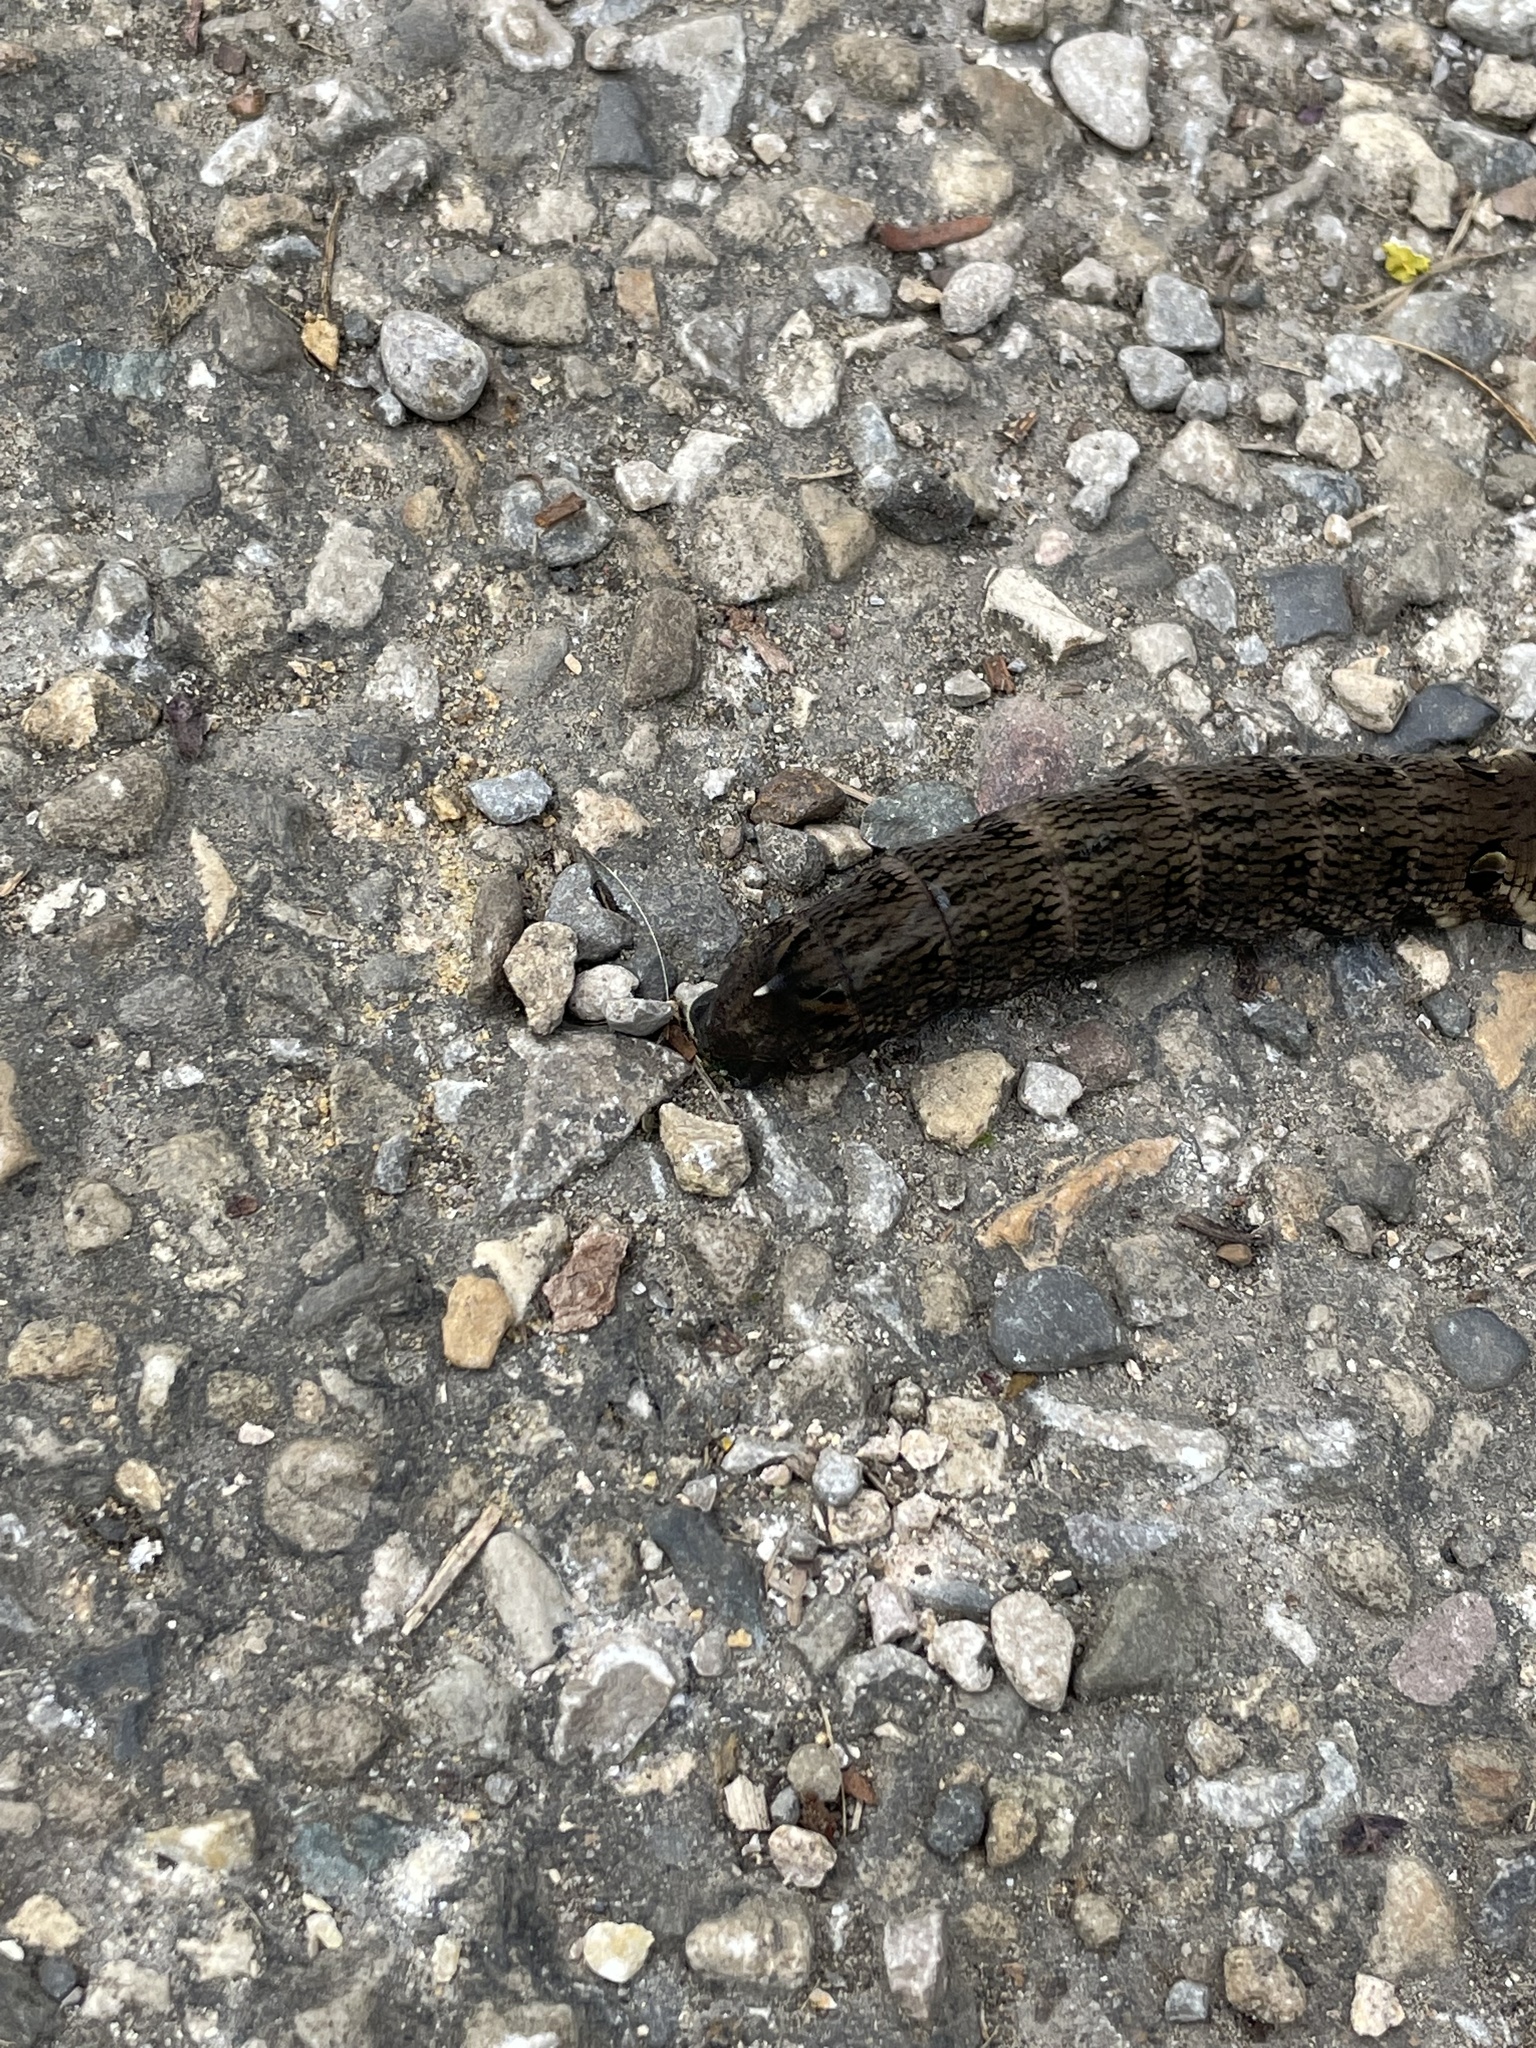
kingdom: Animalia
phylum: Arthropoda
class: Insecta
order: Lepidoptera
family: Sphingidae
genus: Deilephila
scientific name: Deilephila elpenor
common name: Elephant hawk-moth
